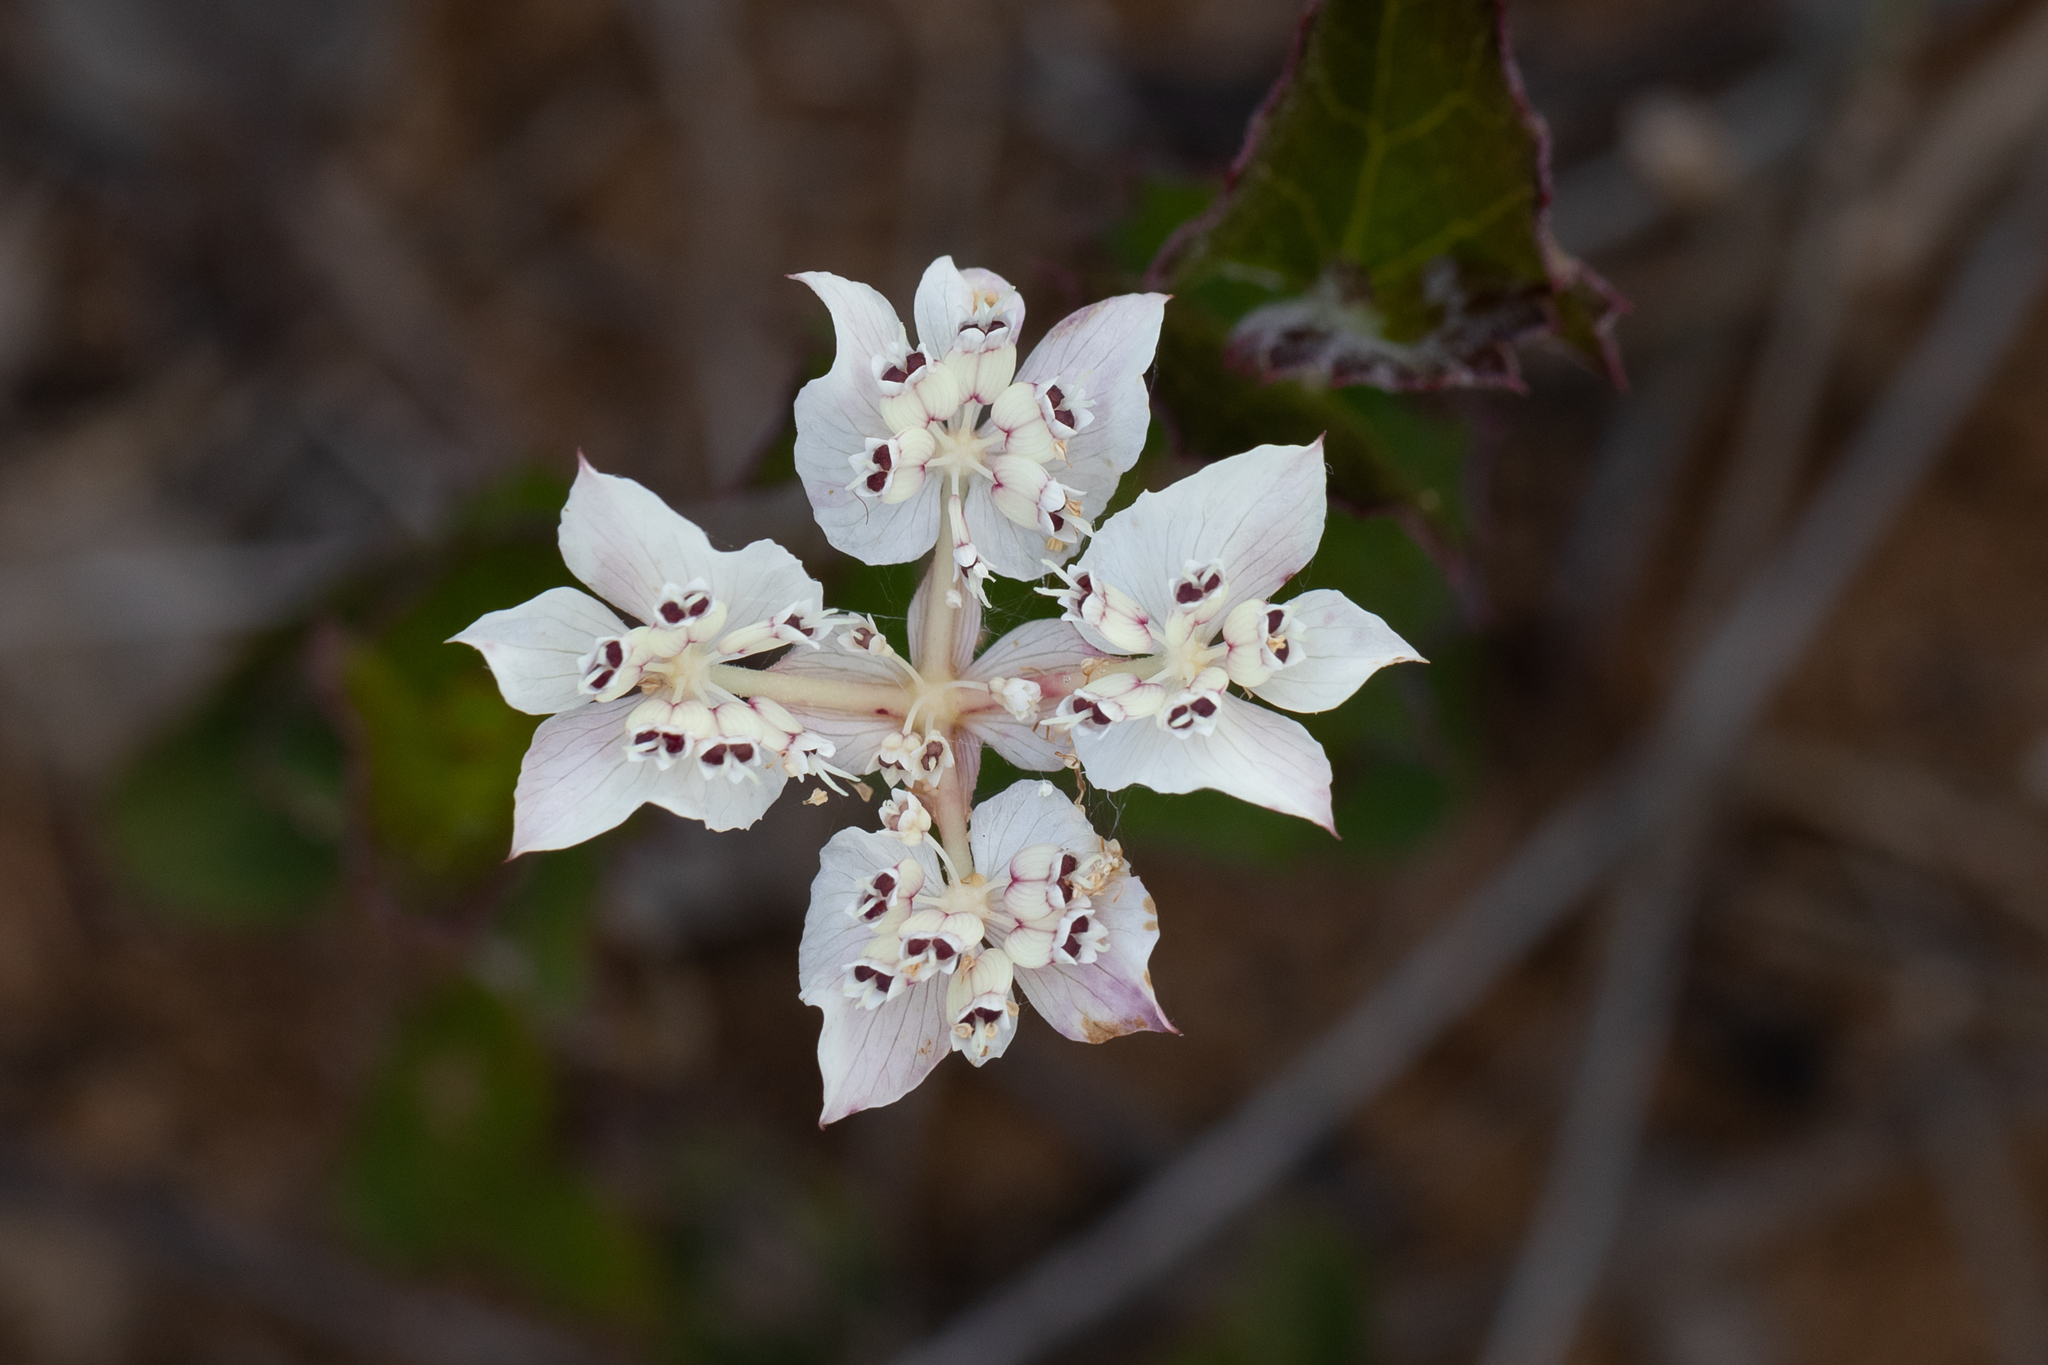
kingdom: Plantae
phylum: Tracheophyta
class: Magnoliopsida
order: Apiales
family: Apiaceae
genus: Xanthosia
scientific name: Xanthosia rotundifolia
